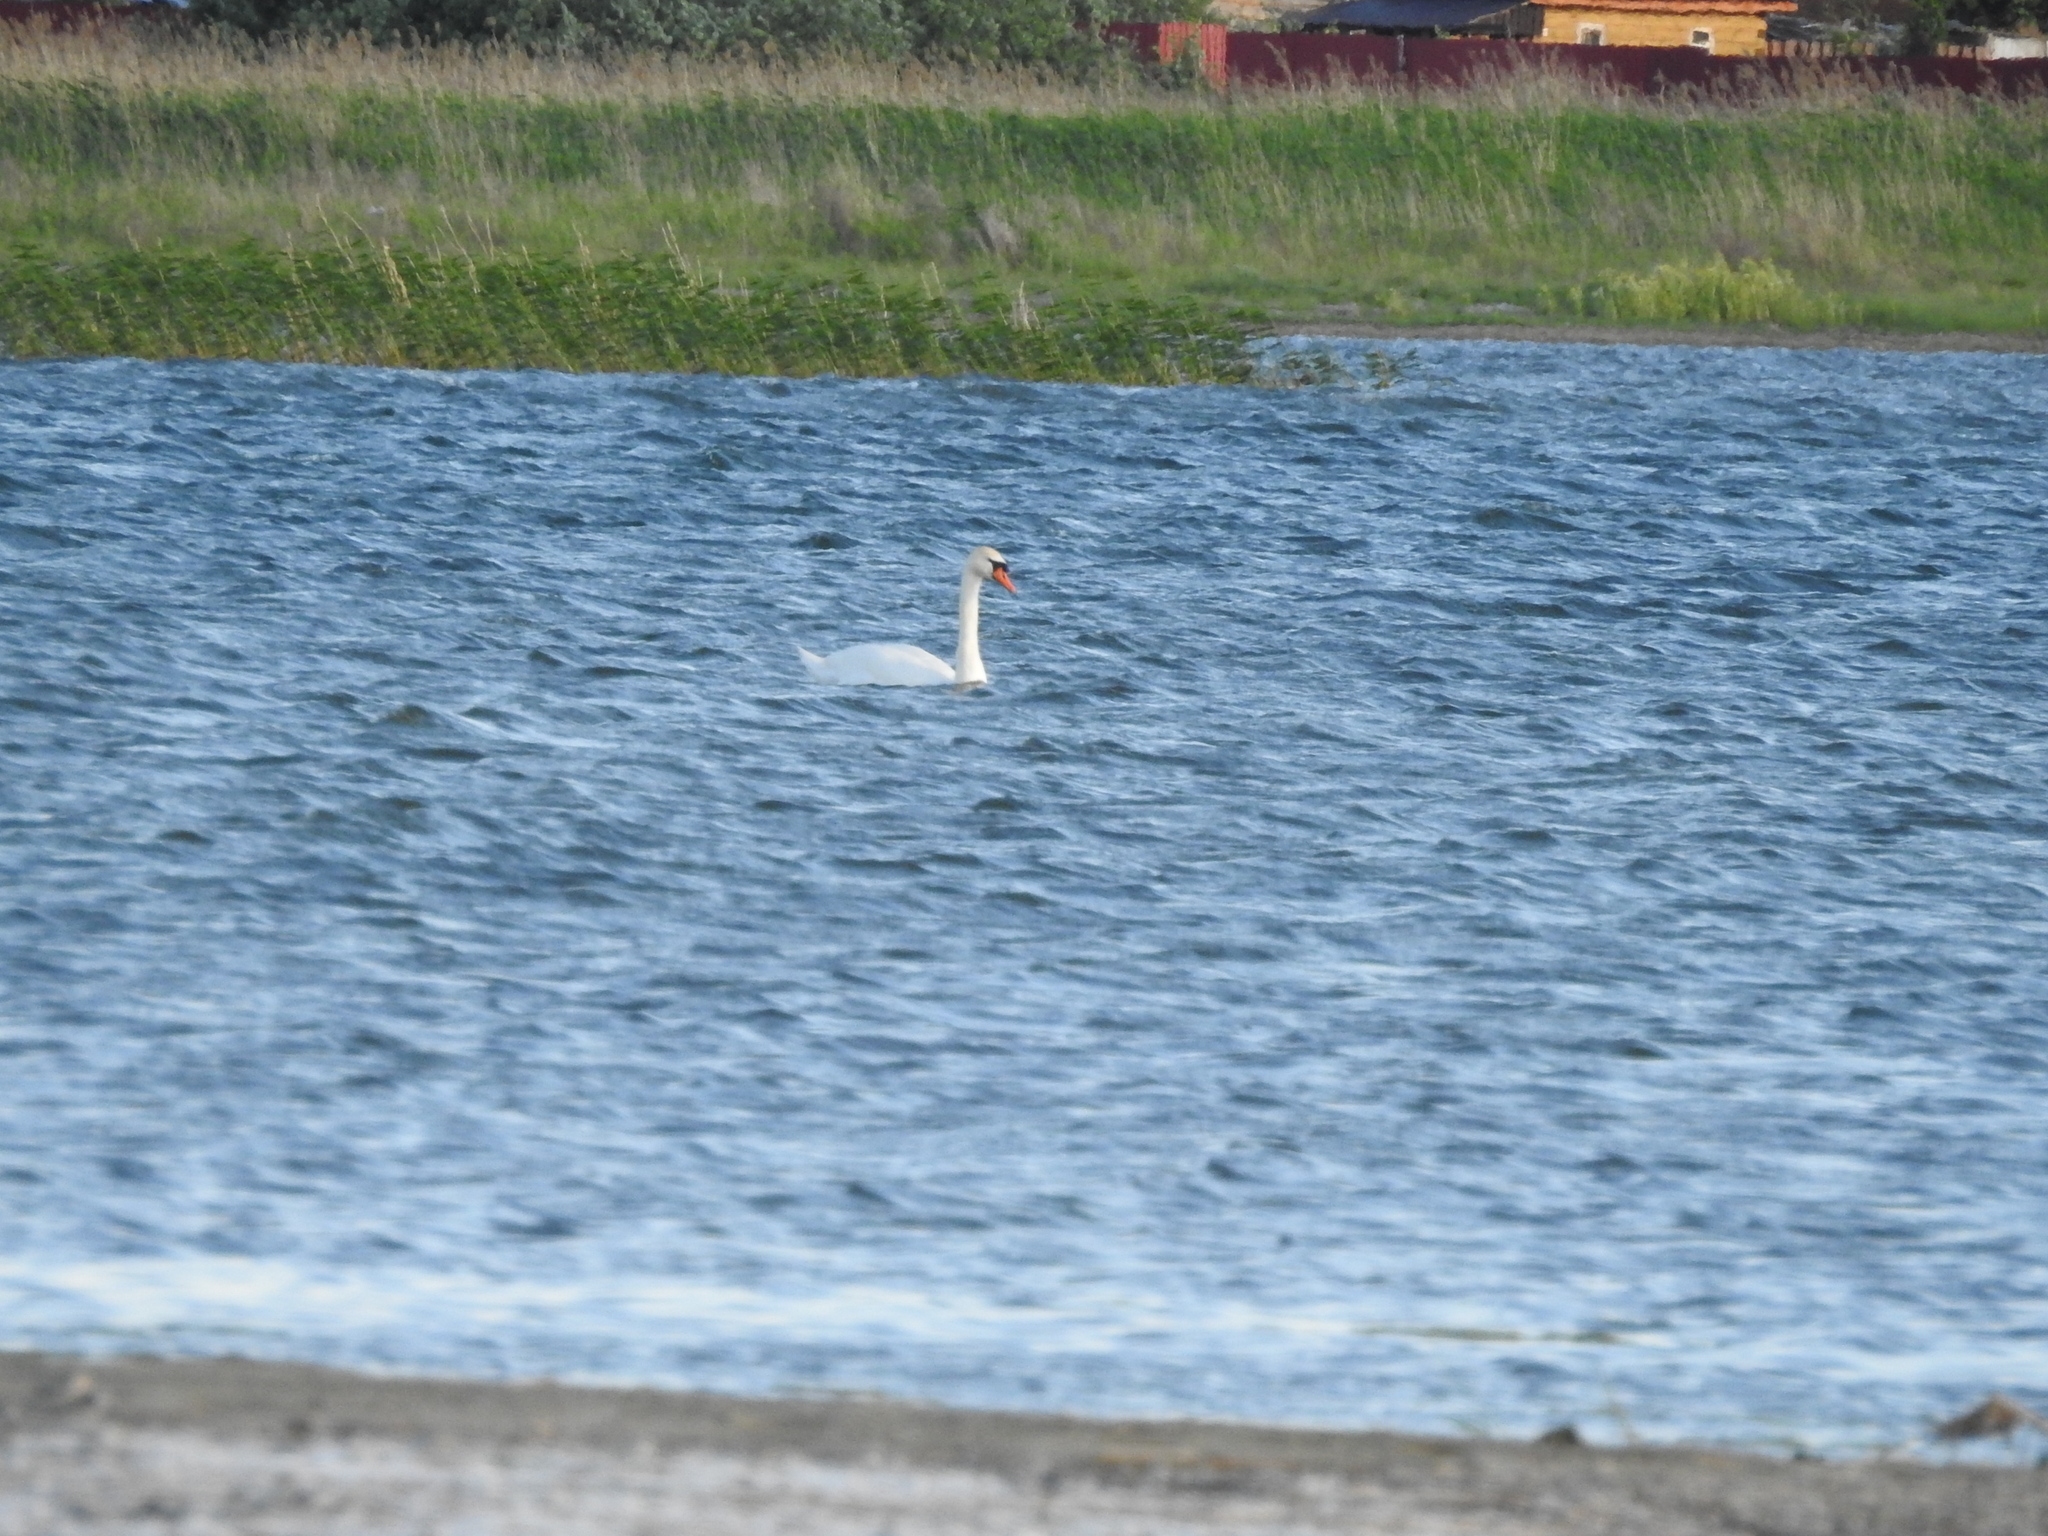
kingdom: Animalia
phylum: Chordata
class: Aves
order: Anseriformes
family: Anatidae
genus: Cygnus
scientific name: Cygnus olor
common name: Mute swan
